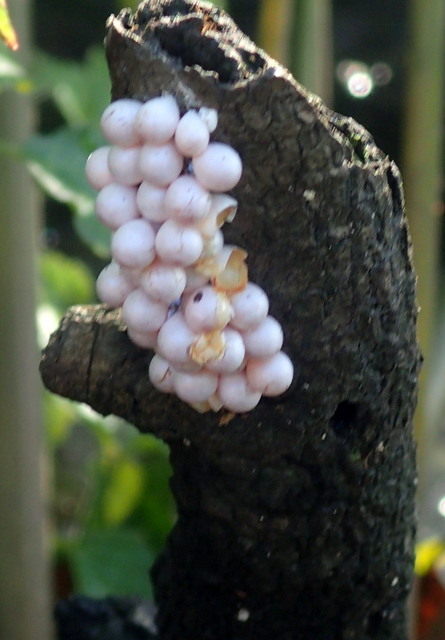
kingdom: Animalia
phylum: Mollusca
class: Gastropoda
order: Architaenioglossa
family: Ampullariidae
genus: Pomacea
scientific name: Pomacea paludosa
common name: Florida applesnail
